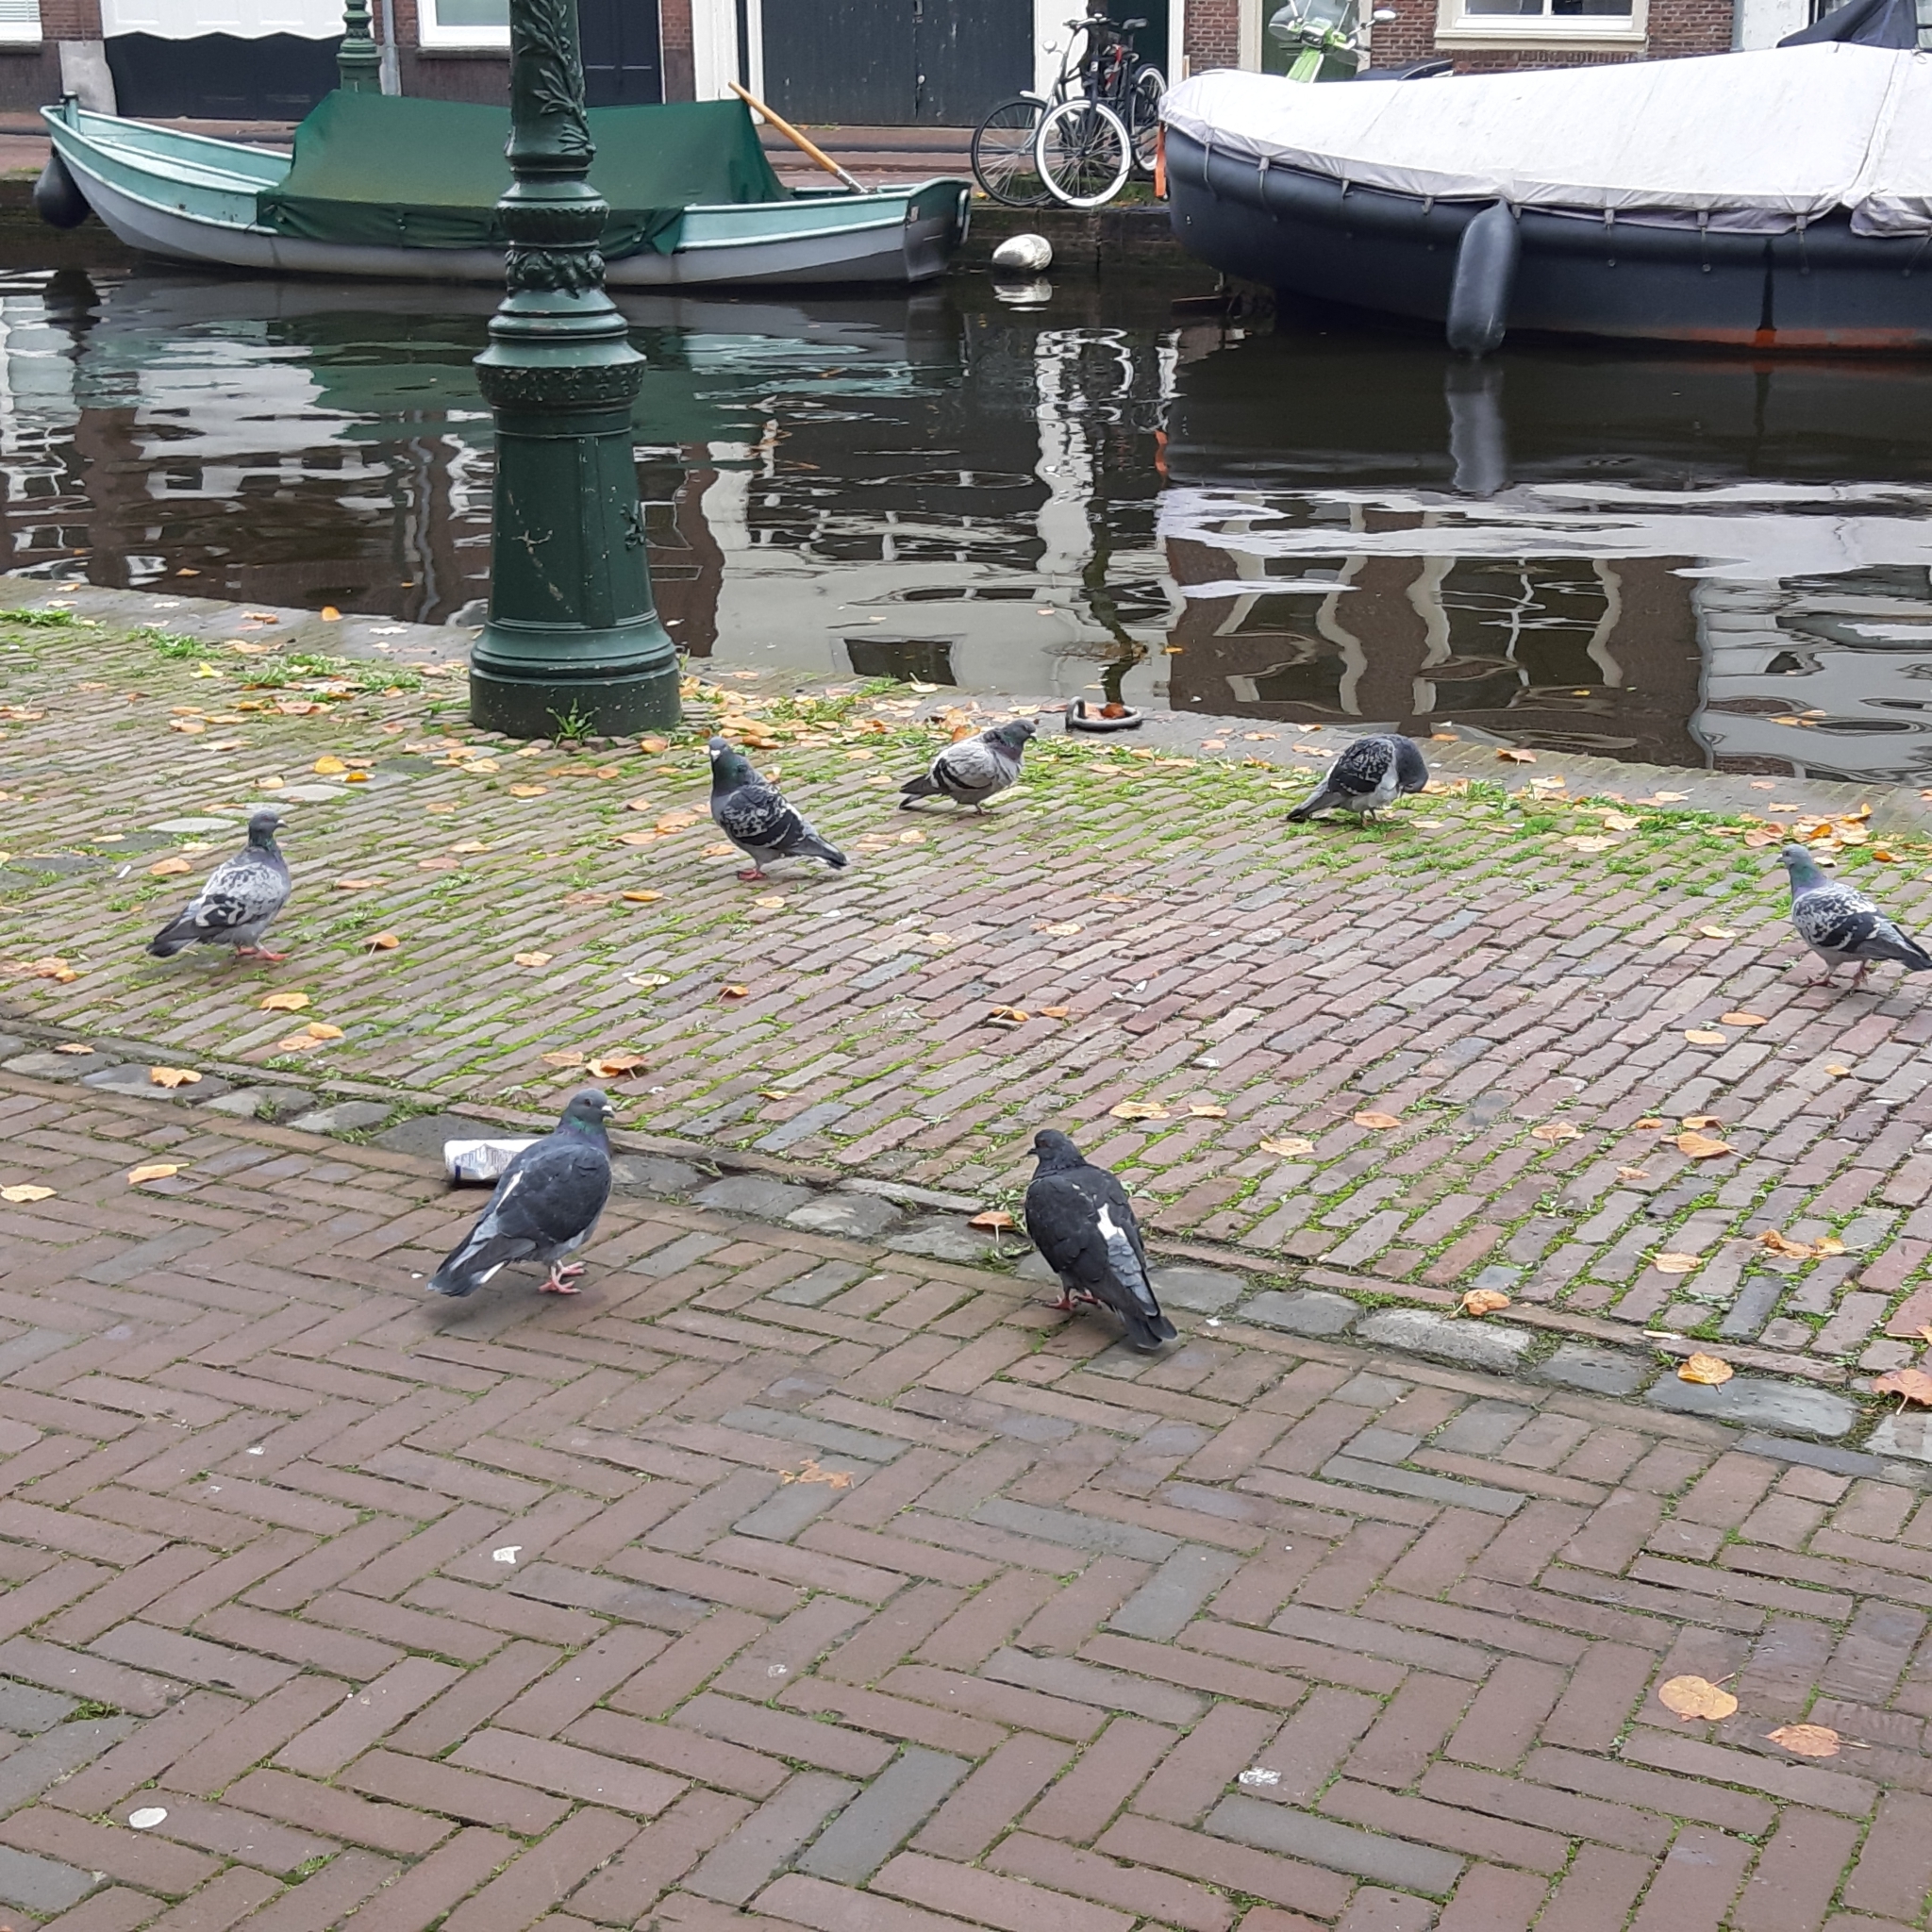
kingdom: Animalia
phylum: Chordata
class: Aves
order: Columbiformes
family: Columbidae
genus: Columba
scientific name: Columba livia
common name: Rock pigeon
